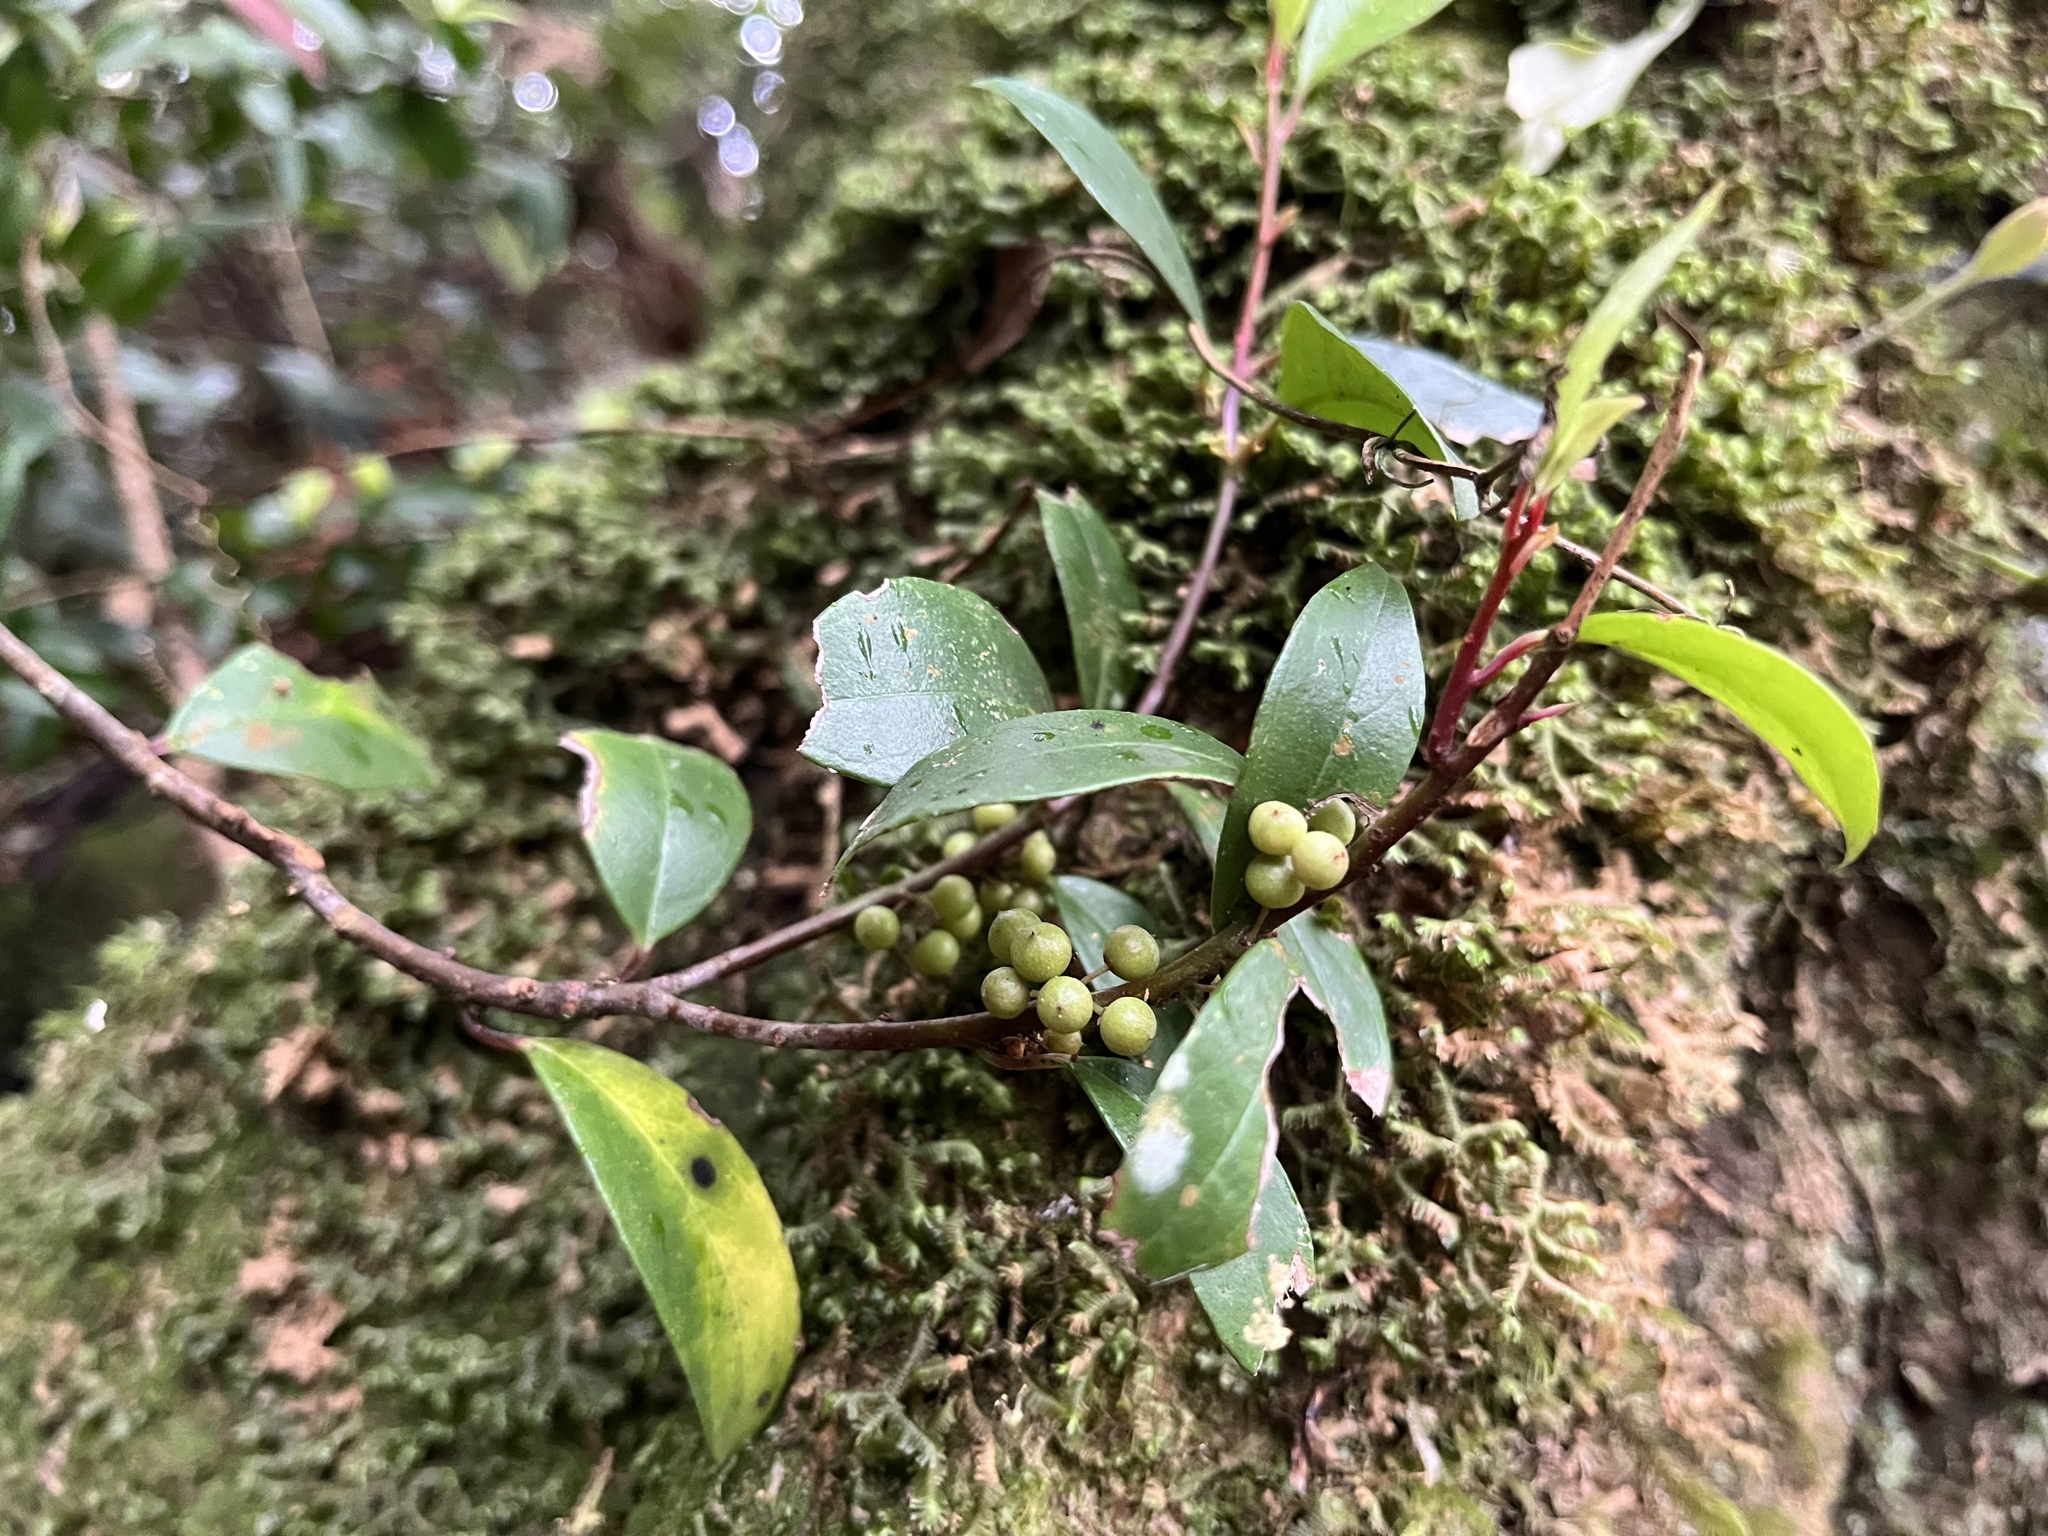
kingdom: Plantae
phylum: Tracheophyta
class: Magnoliopsida
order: Ericales
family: Primulaceae
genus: Myrsine
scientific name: Myrsine stolonifera
